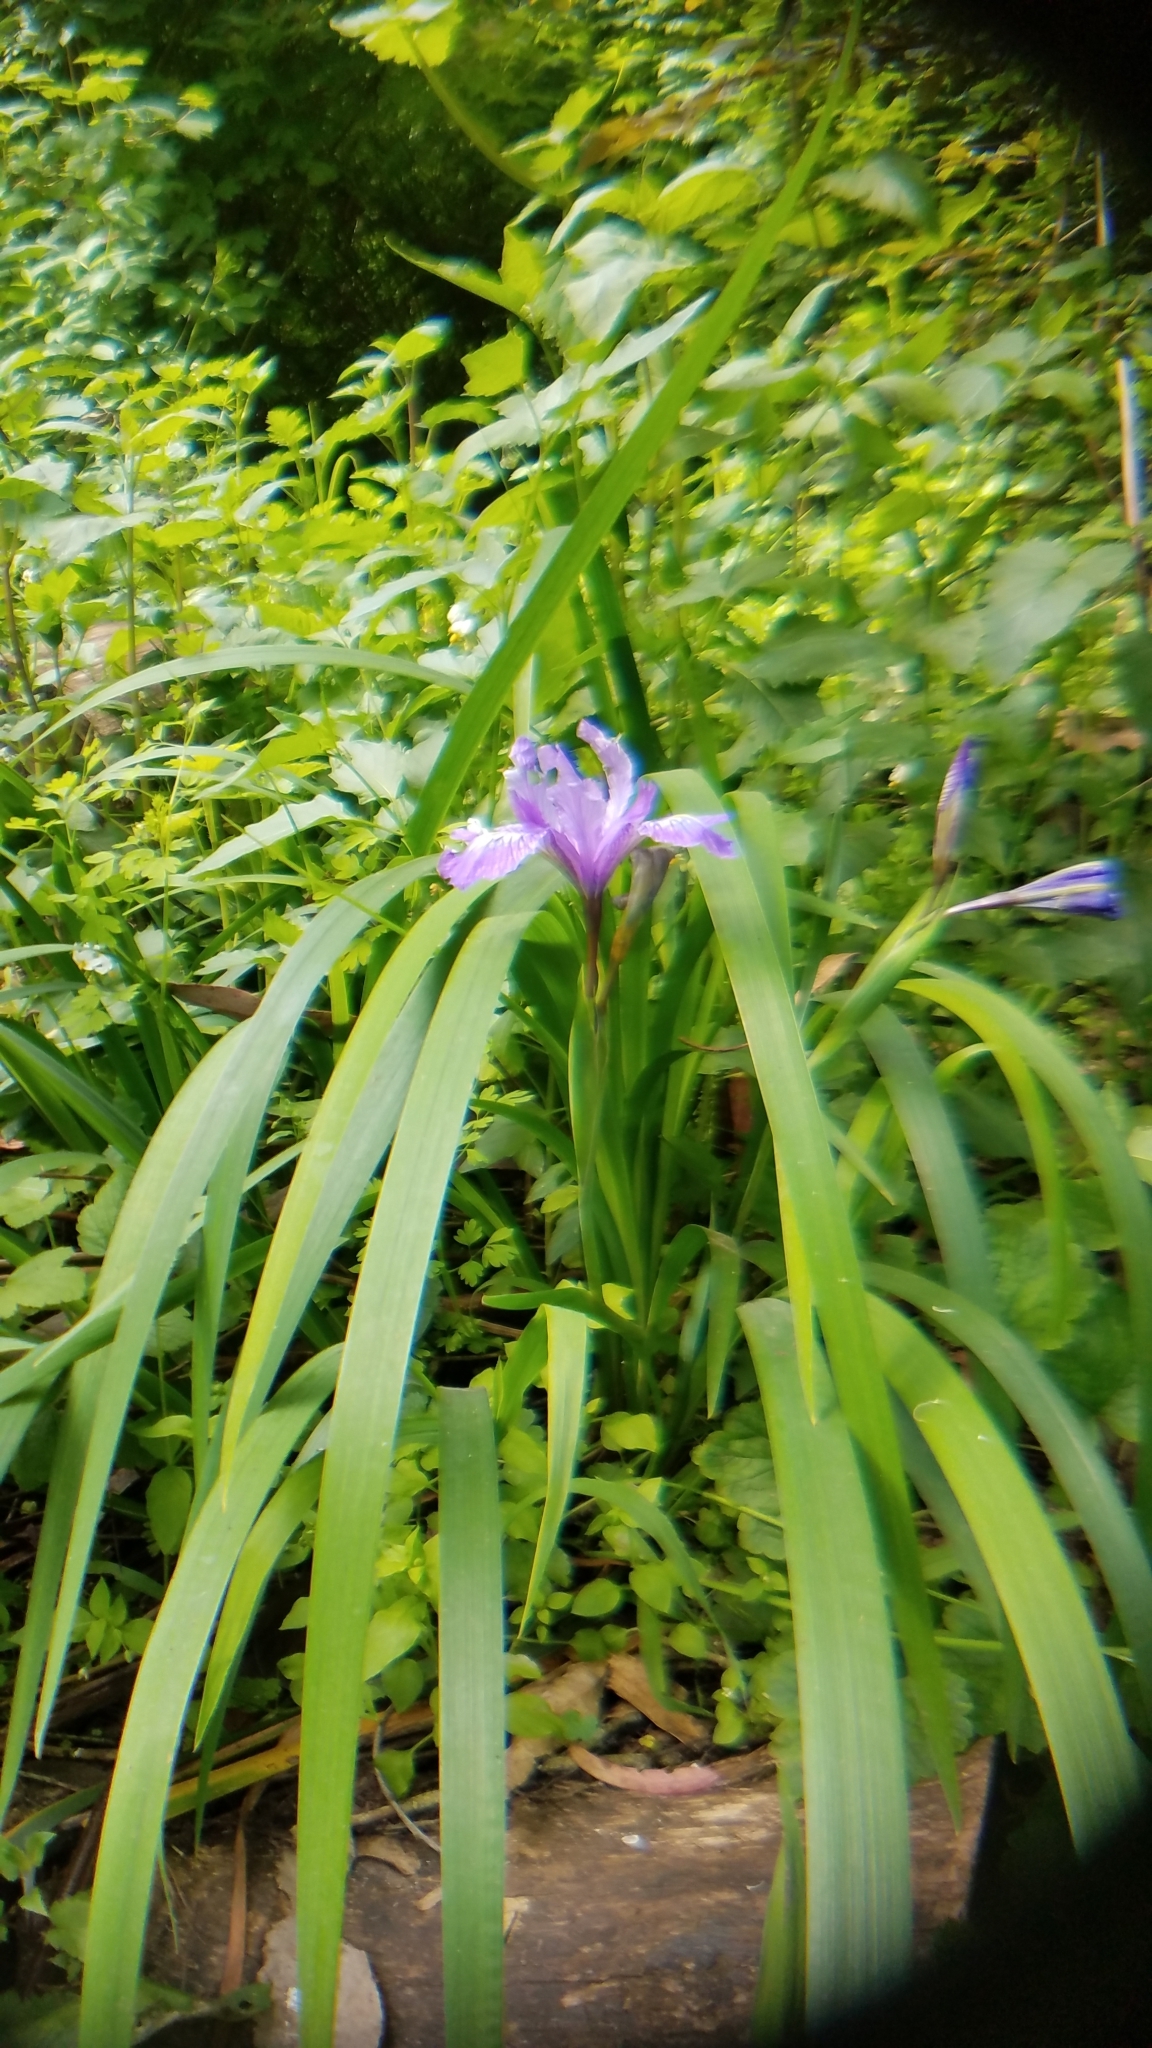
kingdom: Plantae
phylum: Tracheophyta
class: Liliopsida
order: Asparagales
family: Iridaceae
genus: Iris
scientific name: Iris douglasiana
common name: Marin iris
